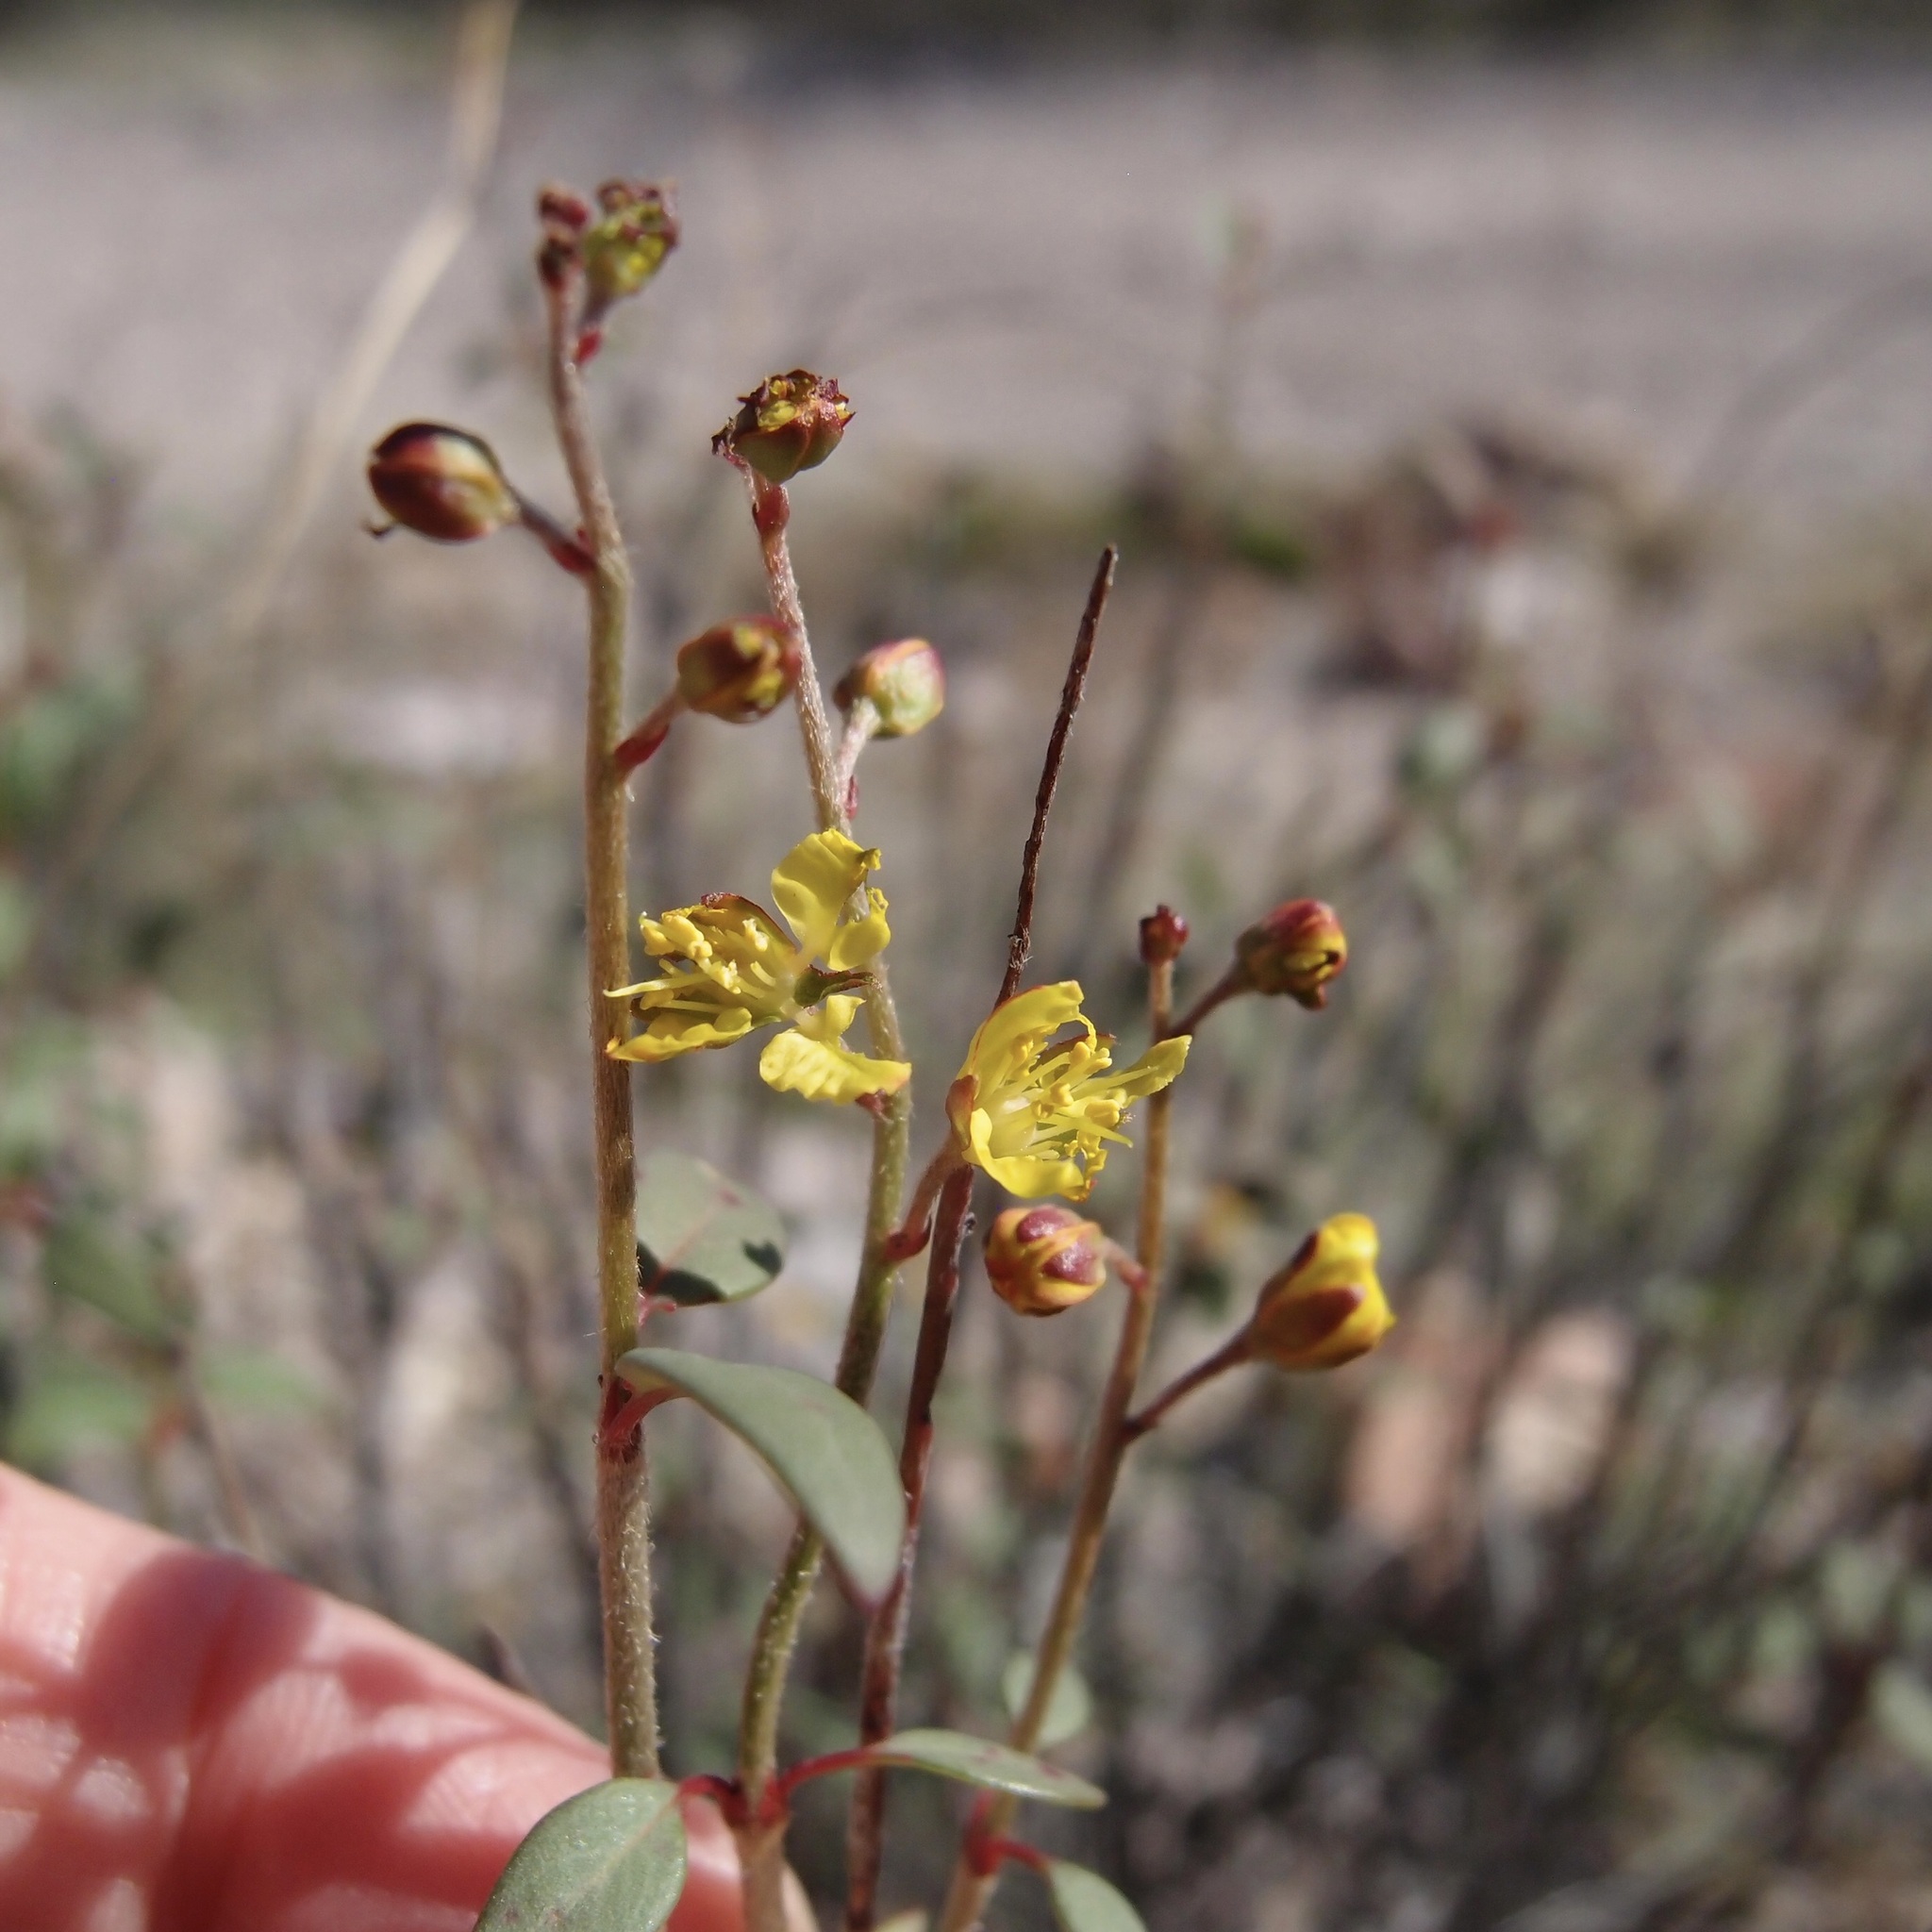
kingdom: Plantae
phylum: Tracheophyta
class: Magnoliopsida
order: Malpighiales
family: Malpighiaceae
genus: Galphimia
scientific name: Galphimia angustifolia
